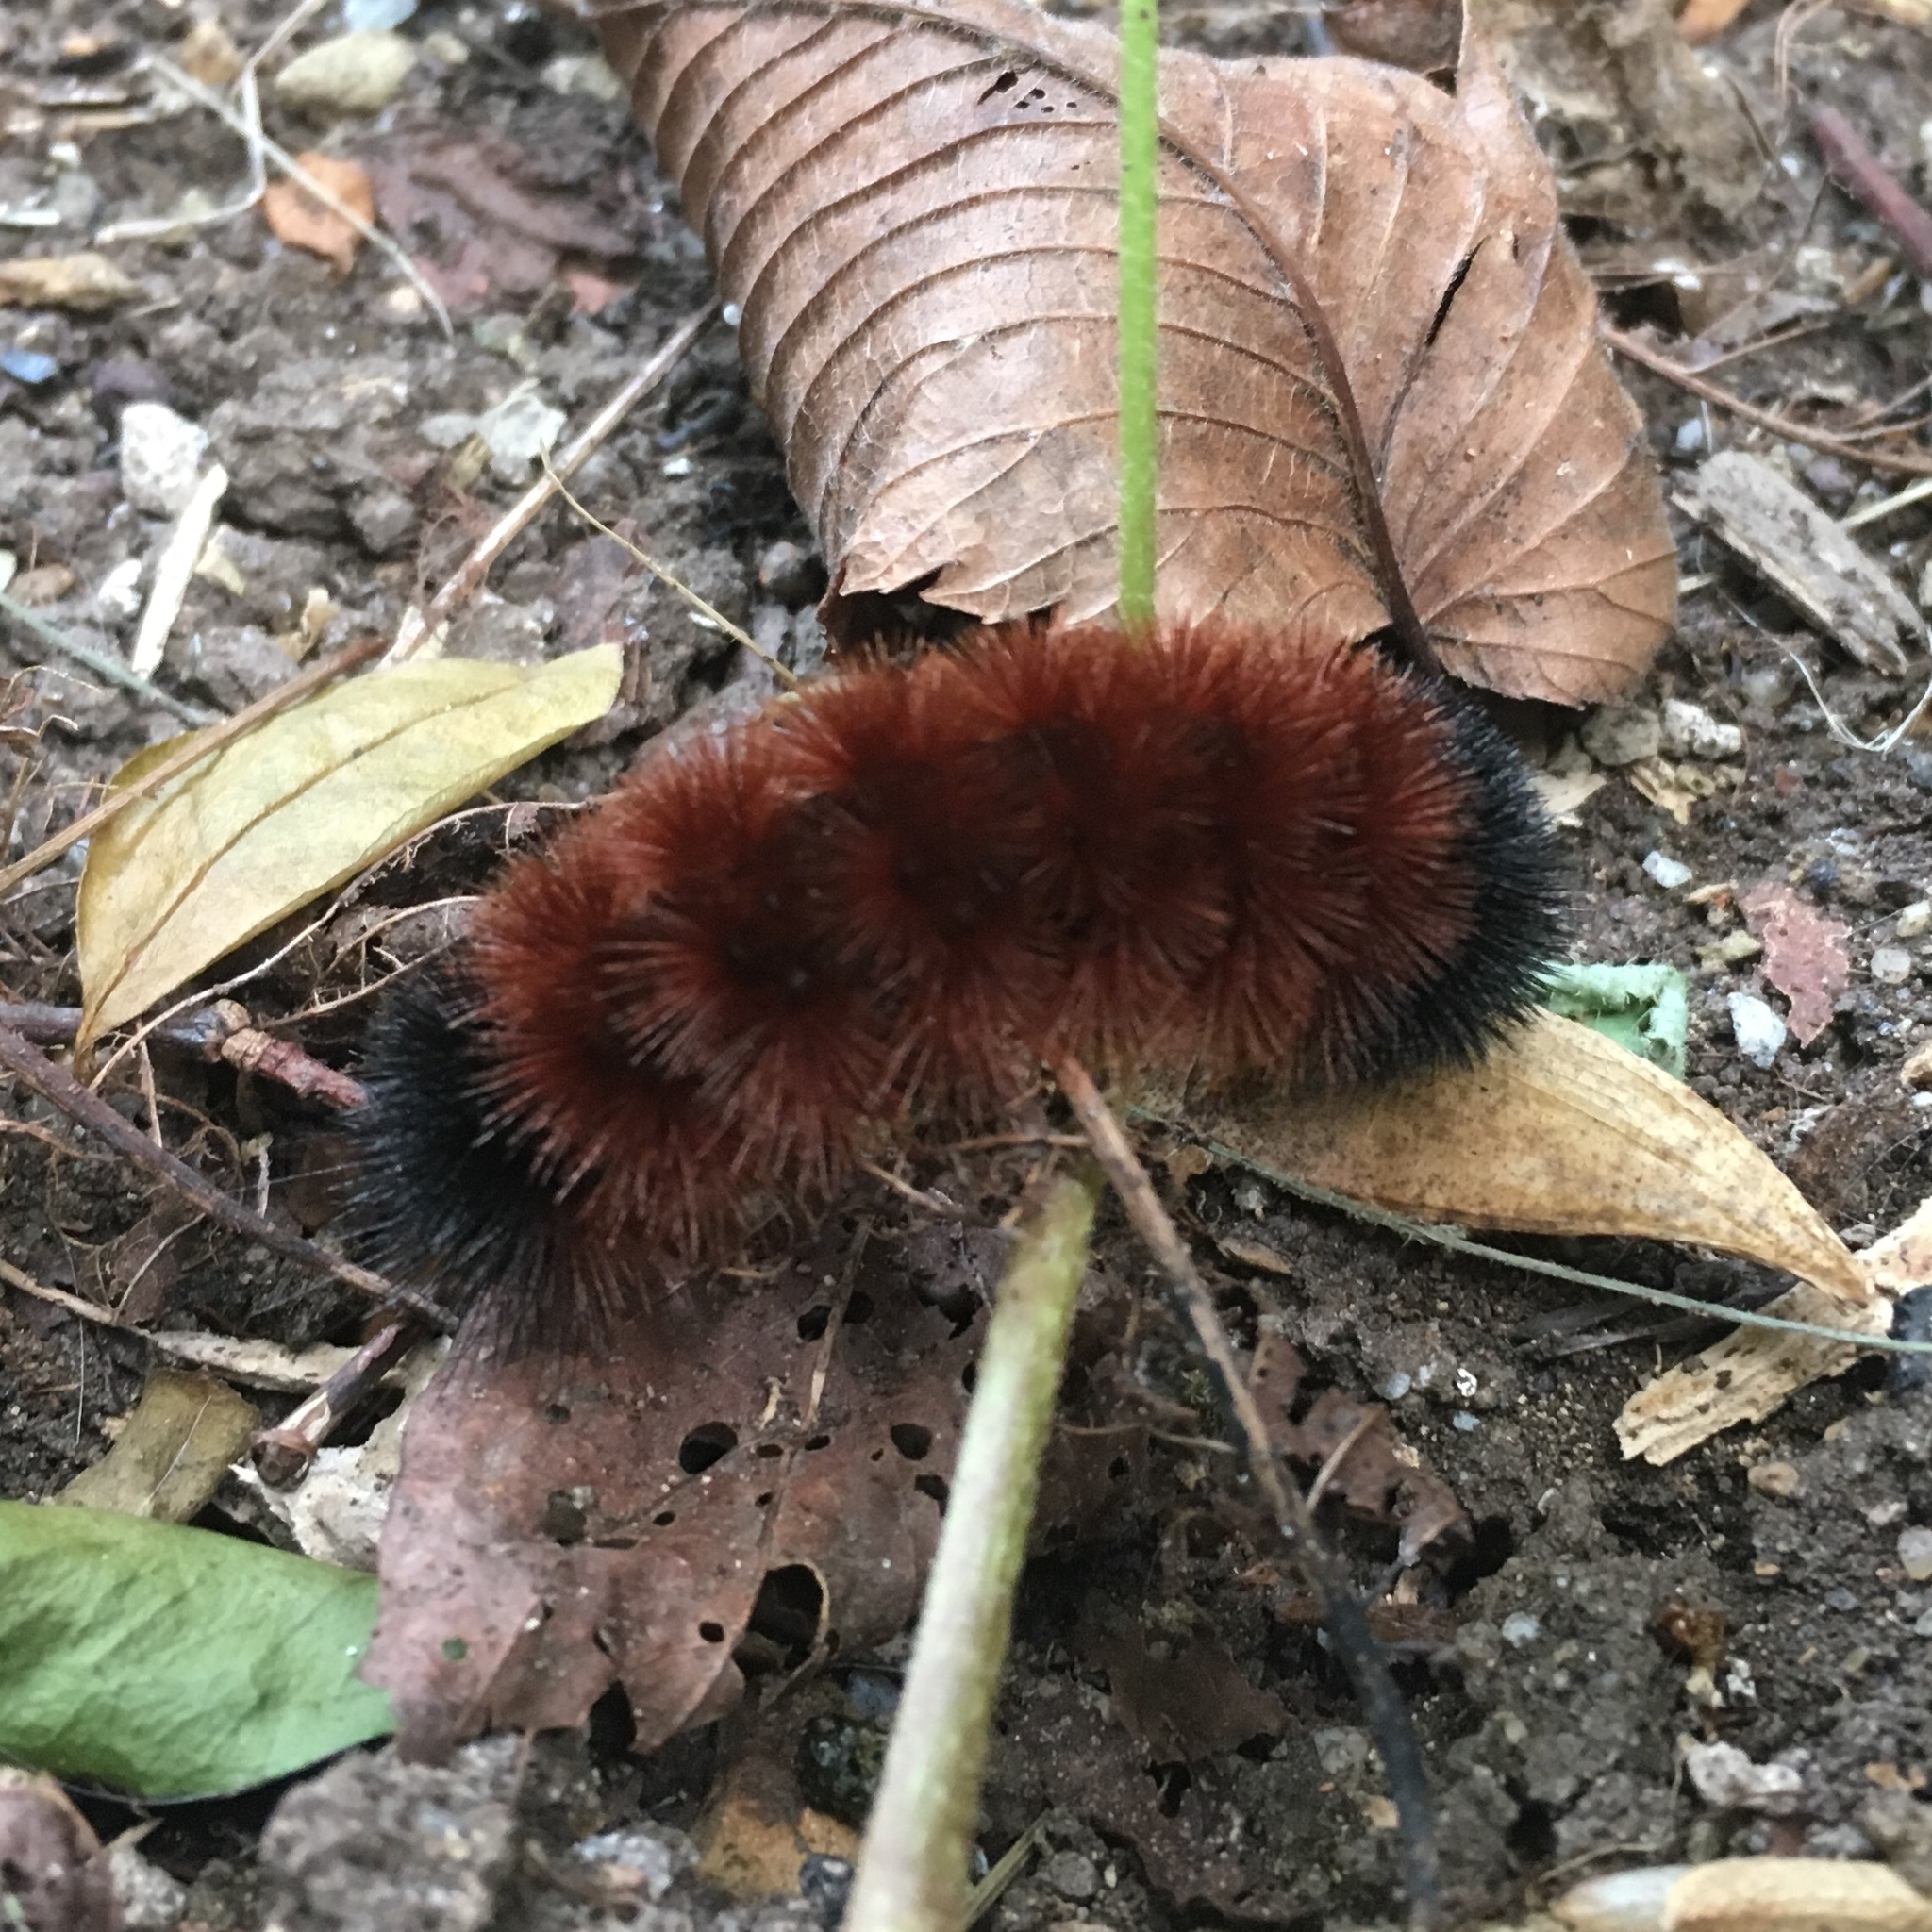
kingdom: Animalia
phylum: Arthropoda
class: Insecta
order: Lepidoptera
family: Erebidae
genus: Pyrrharctia
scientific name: Pyrrharctia isabella
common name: Isabella tiger moth
